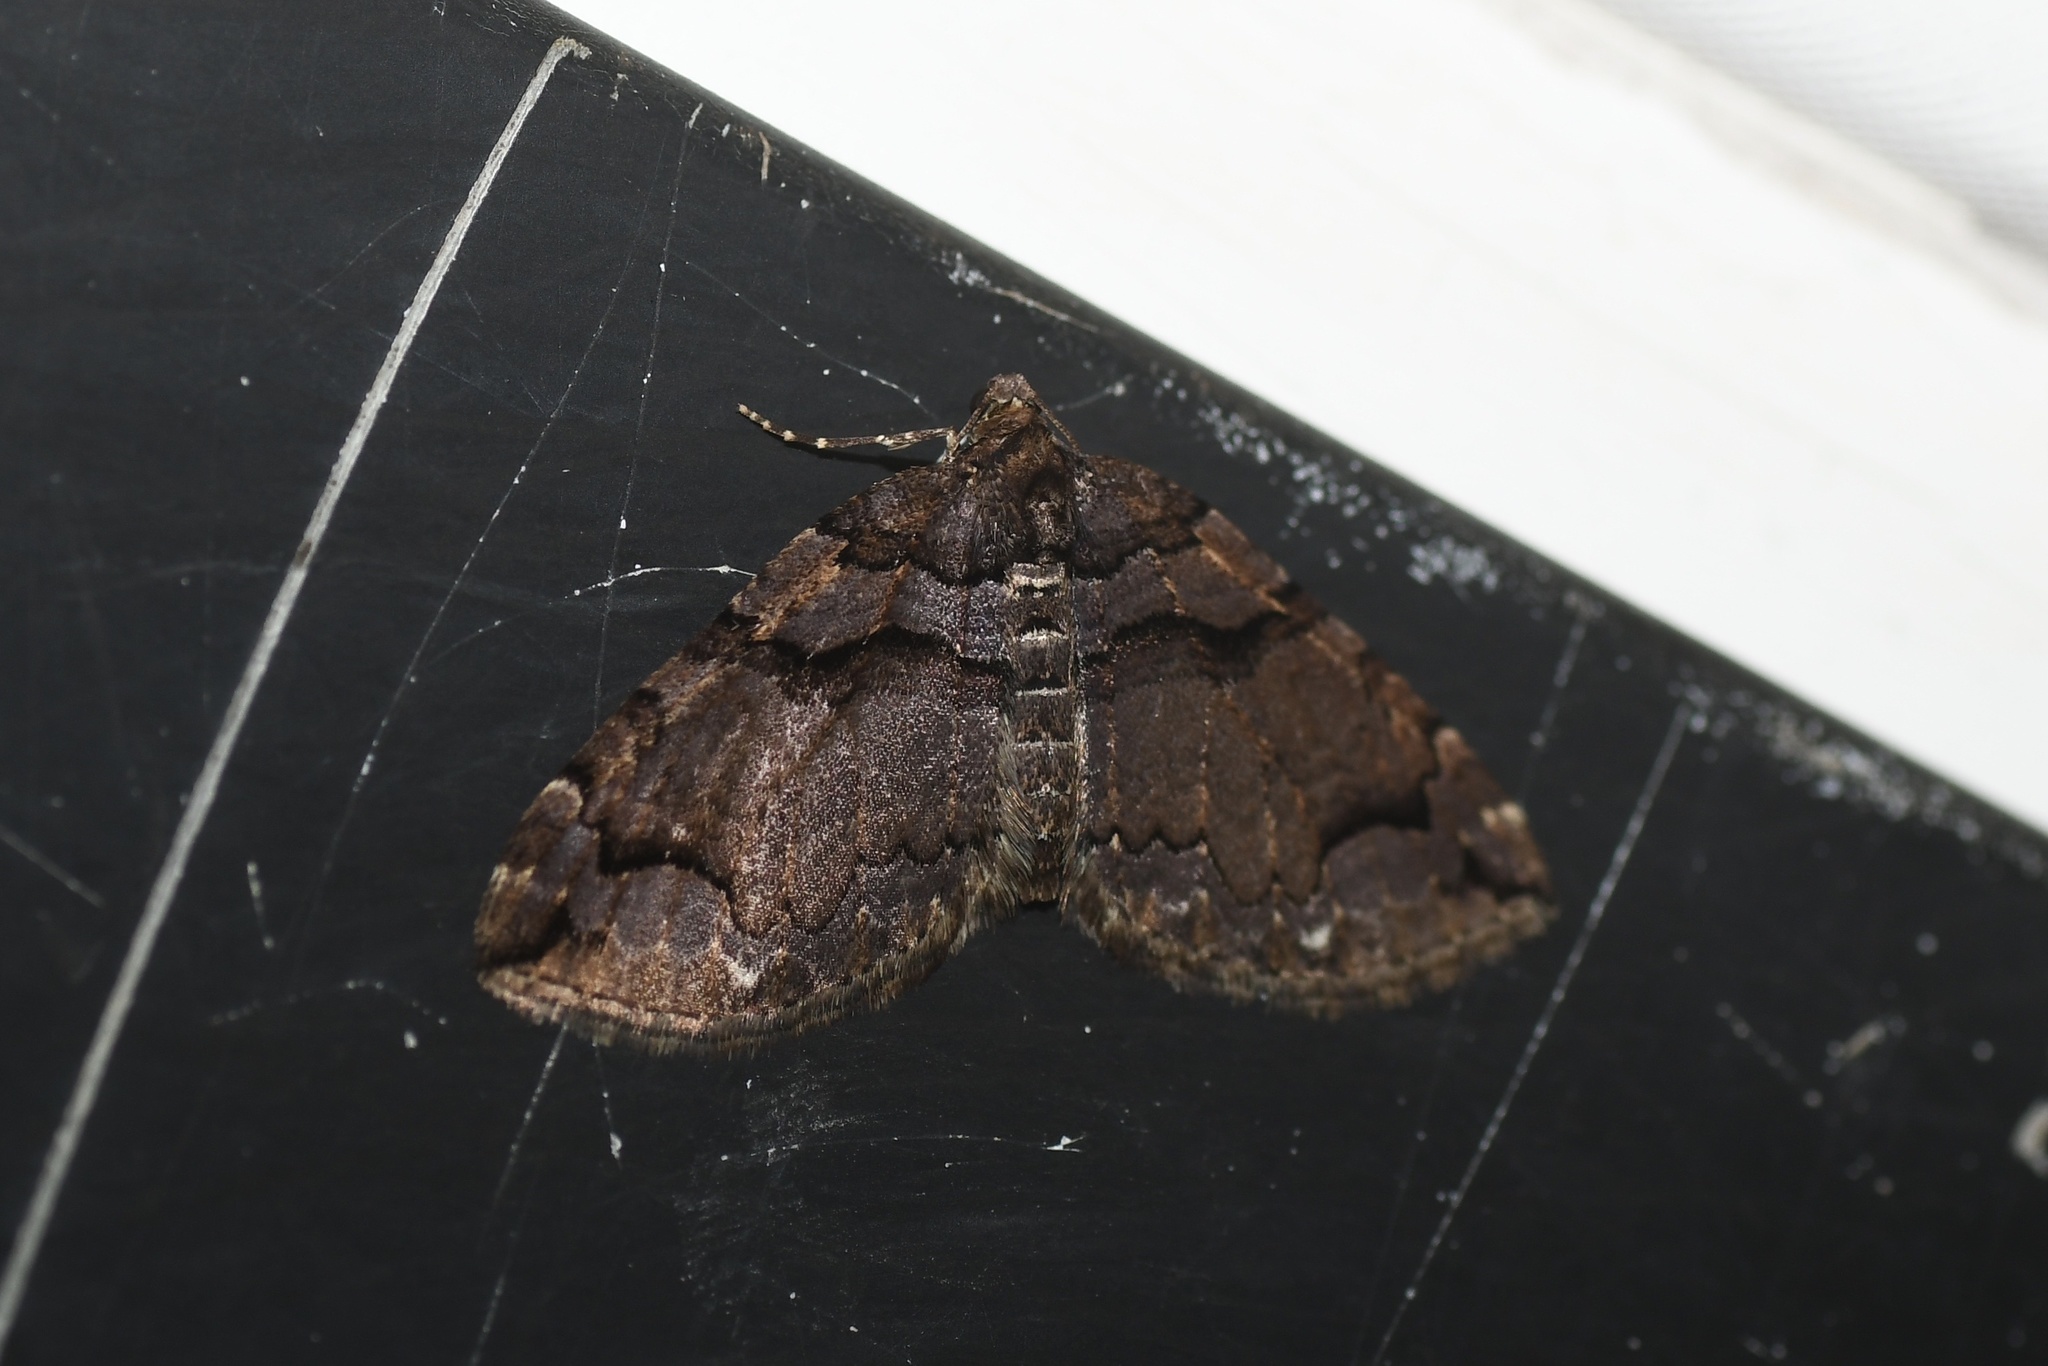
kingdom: Animalia
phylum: Arthropoda
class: Insecta
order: Lepidoptera
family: Geometridae
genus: Anticlea
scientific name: Anticlea vasiliata
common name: Variable carpet
